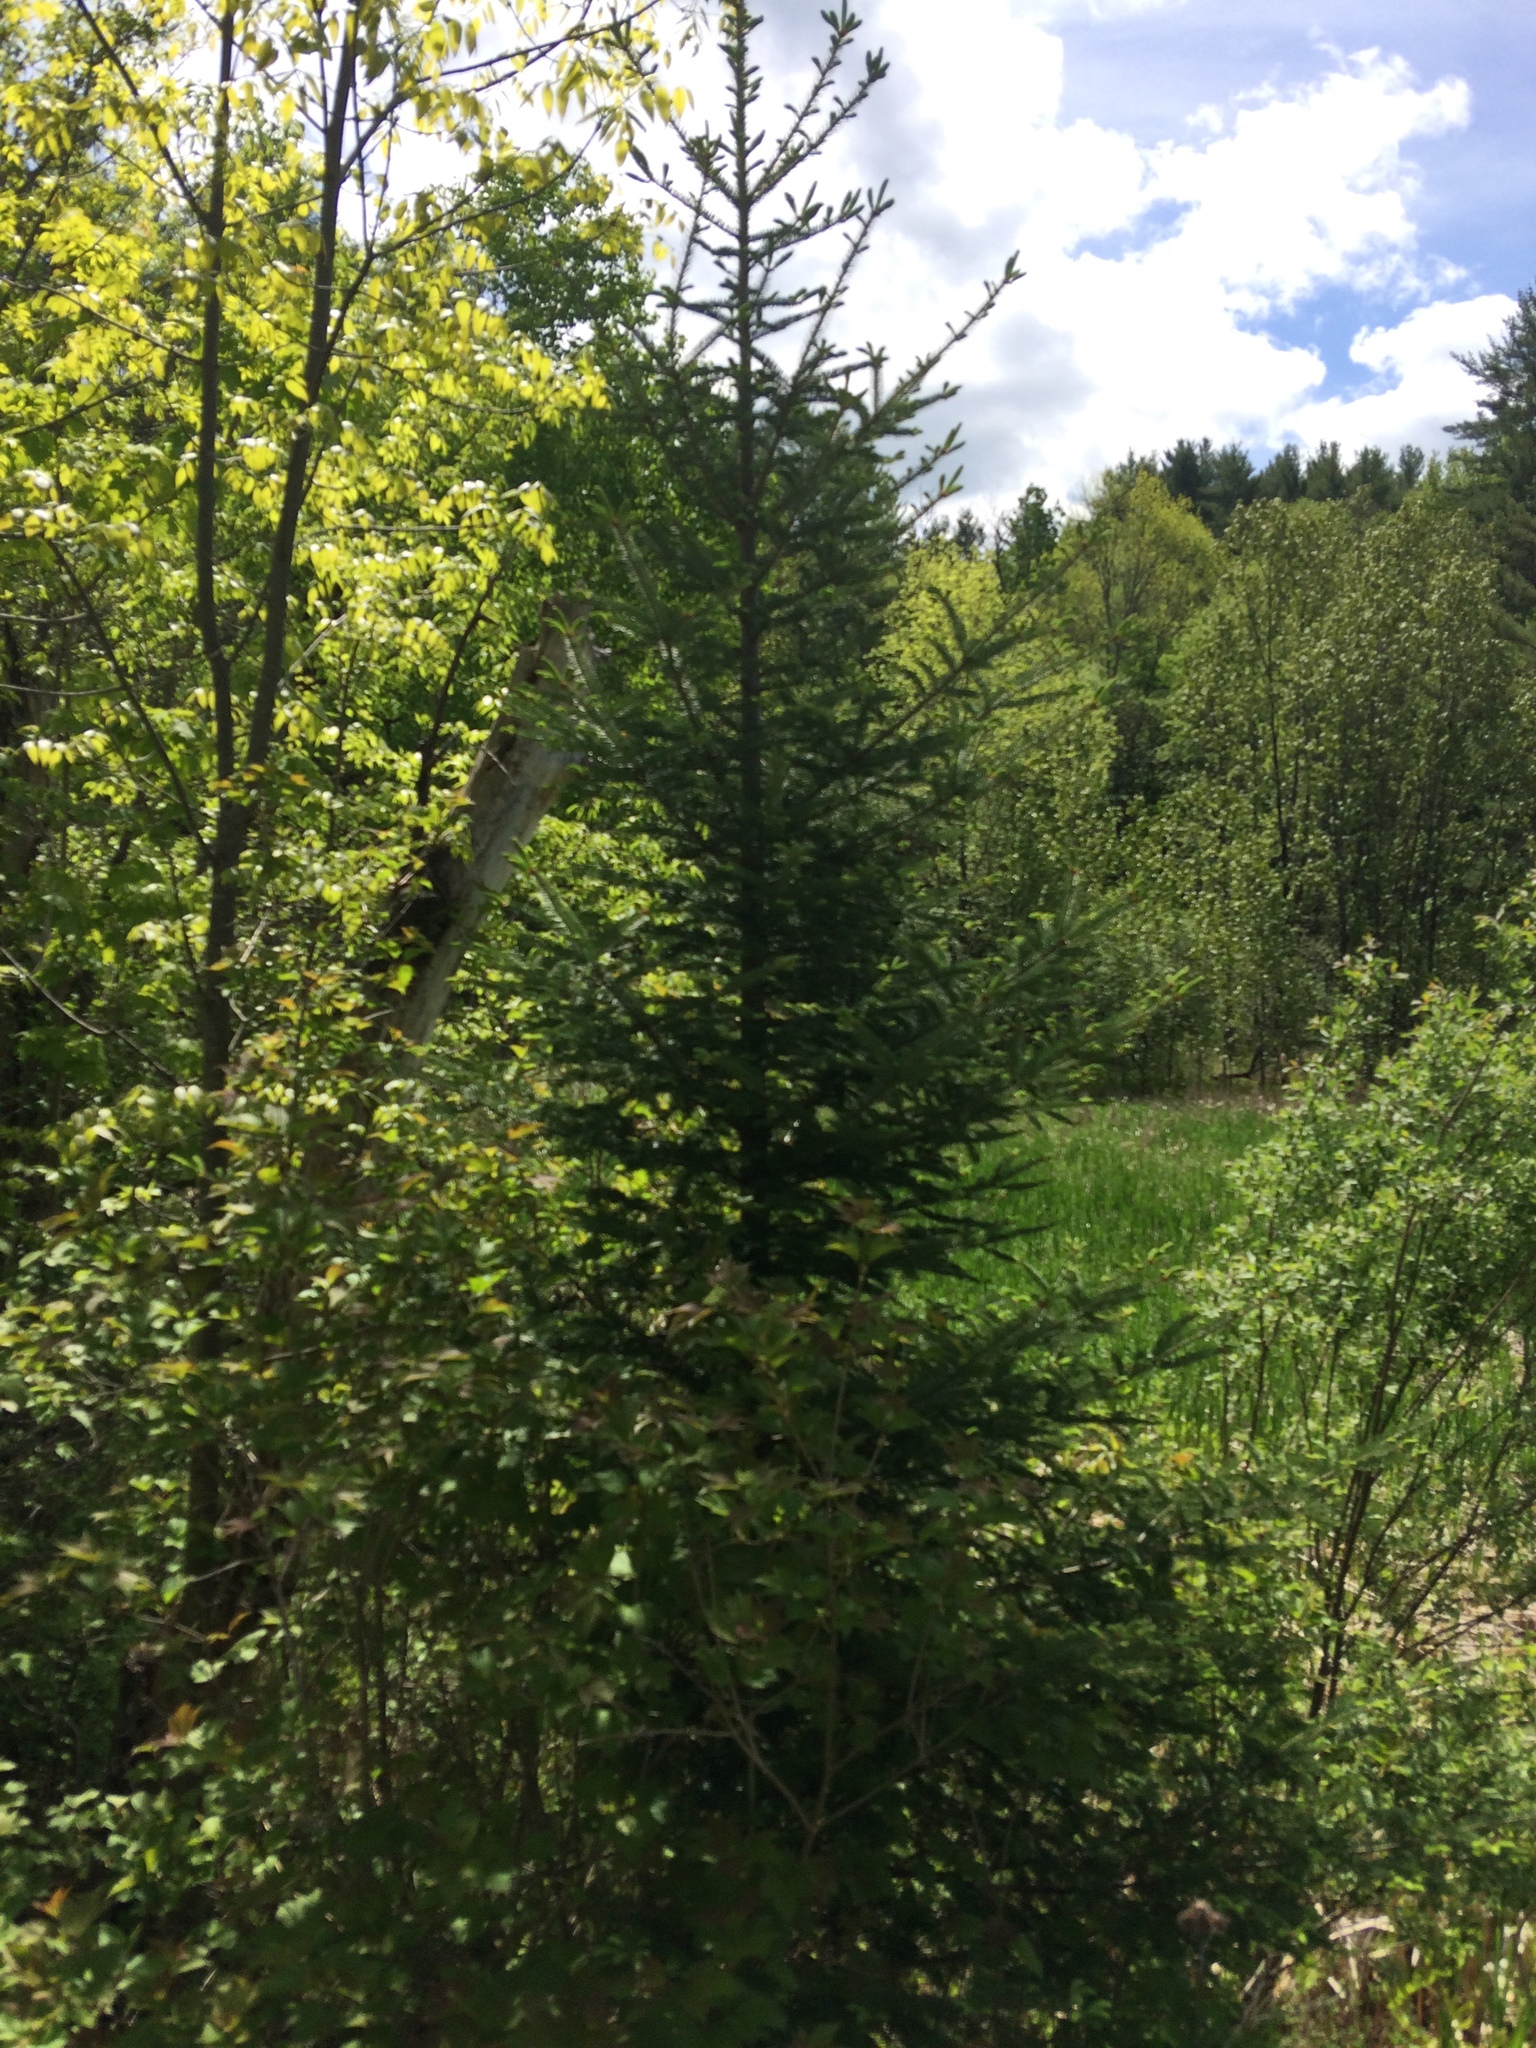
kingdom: Plantae
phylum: Tracheophyta
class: Pinopsida
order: Pinales
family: Pinaceae
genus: Abies
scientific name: Abies balsamea
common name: Balsam fir
